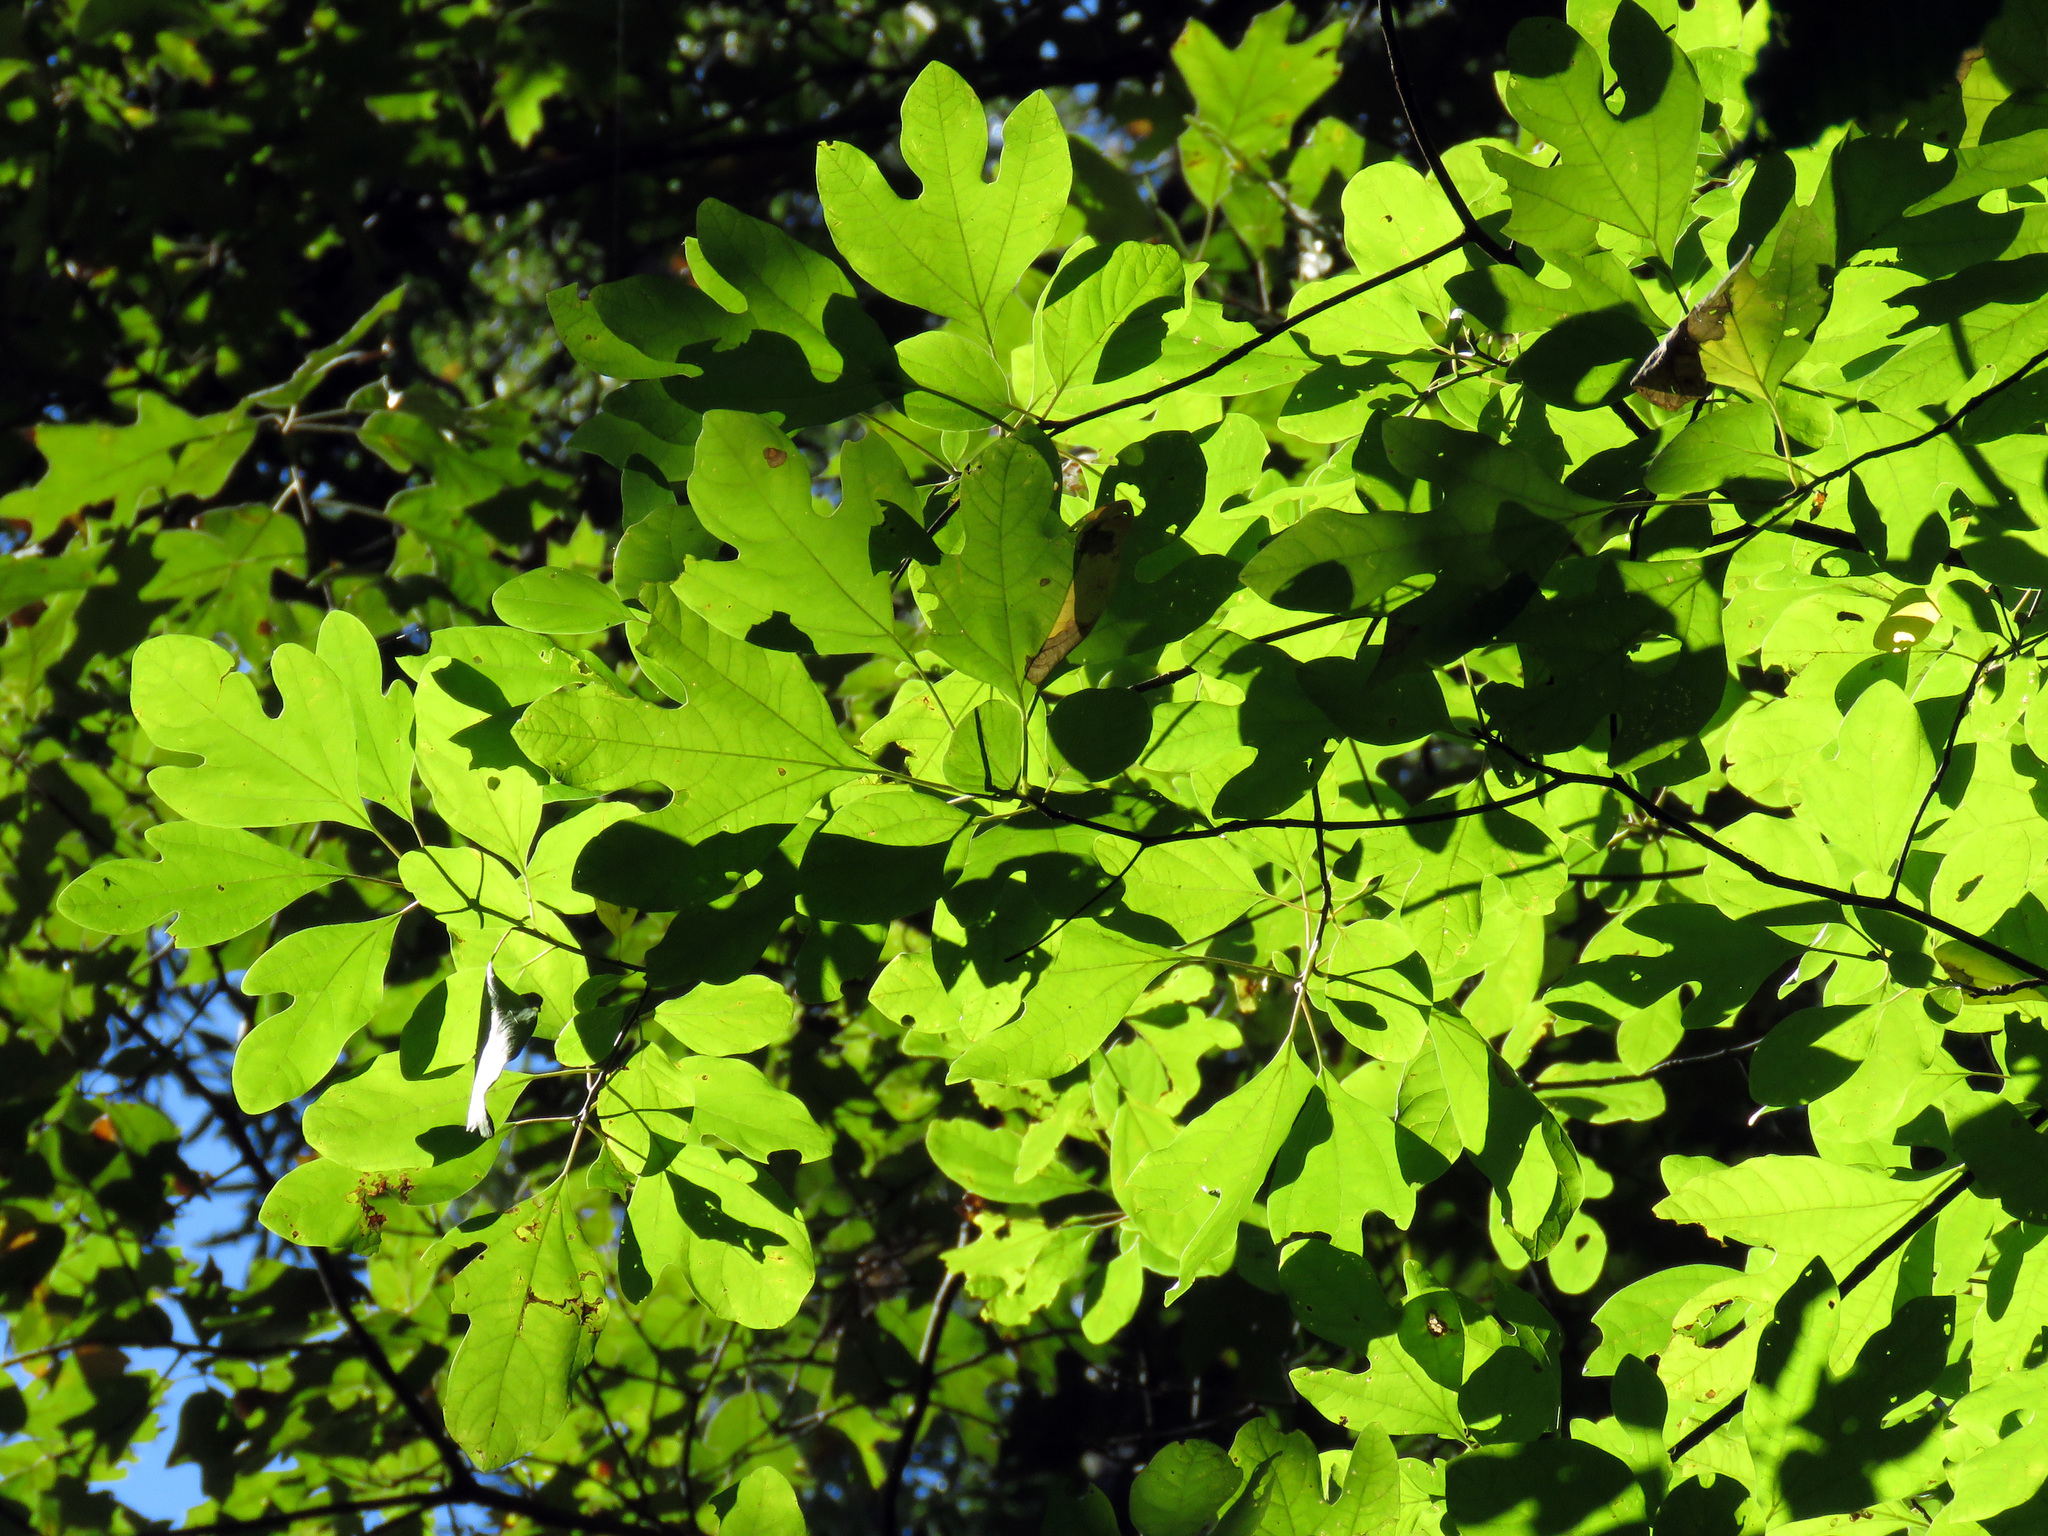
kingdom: Plantae
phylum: Tracheophyta
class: Magnoliopsida
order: Laurales
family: Lauraceae
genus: Sassafras
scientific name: Sassafras albidum
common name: Sassafras
